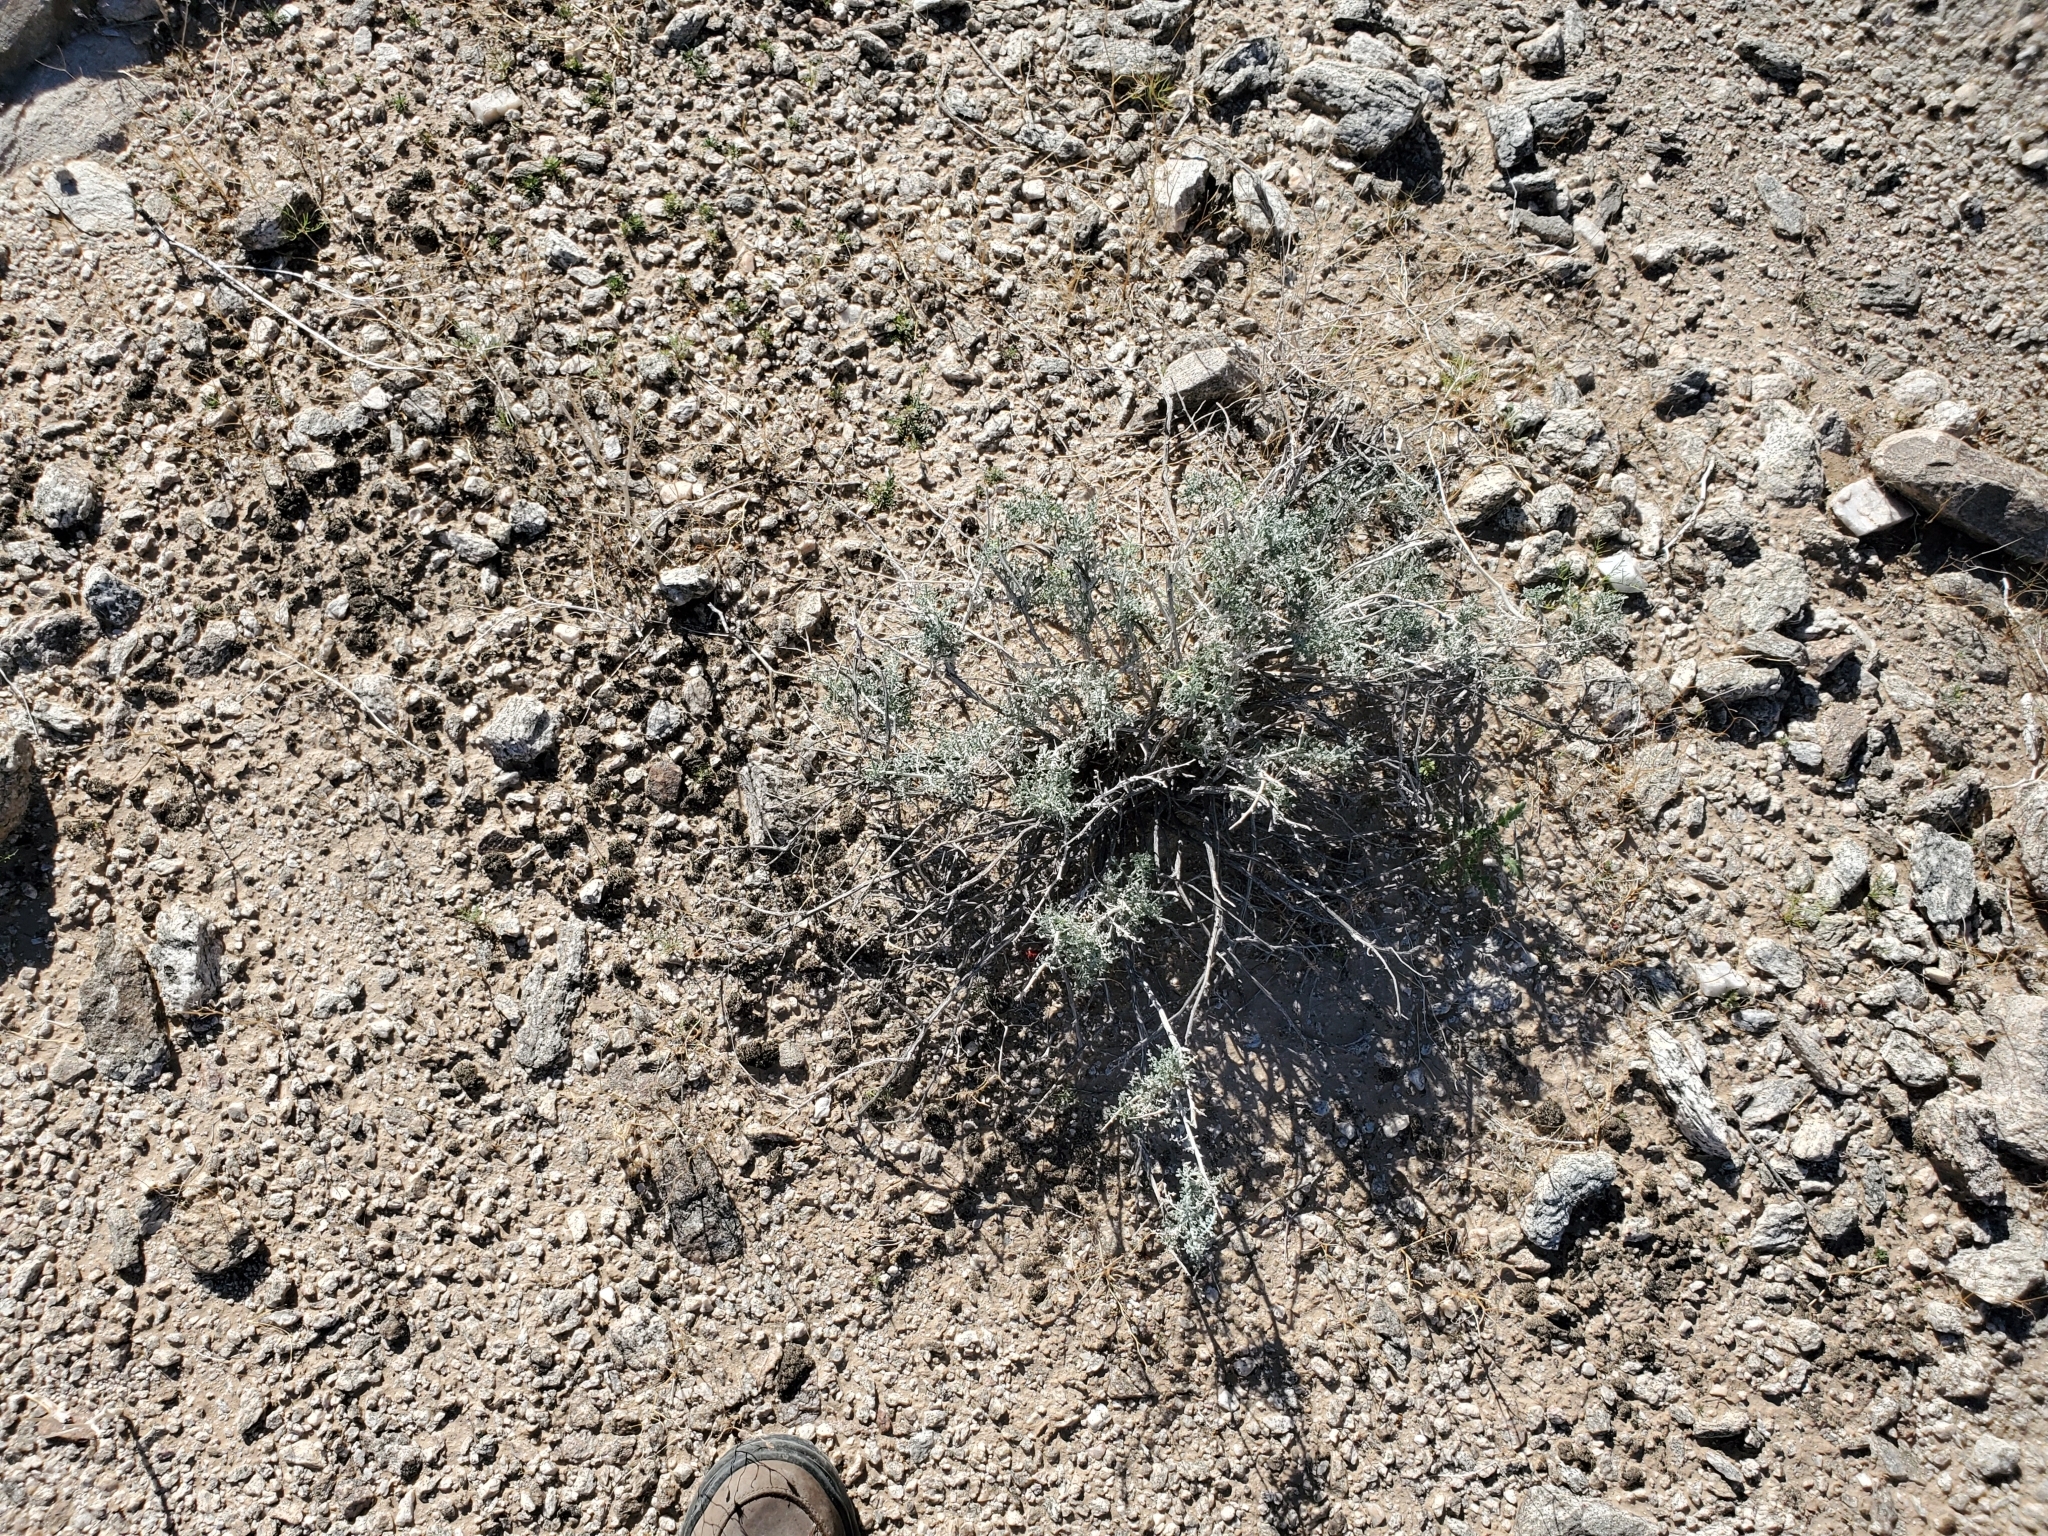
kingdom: Plantae
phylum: Tracheophyta
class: Magnoliopsida
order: Asterales
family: Asteraceae
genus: Ambrosia
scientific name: Ambrosia dumosa
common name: Bur-sage
